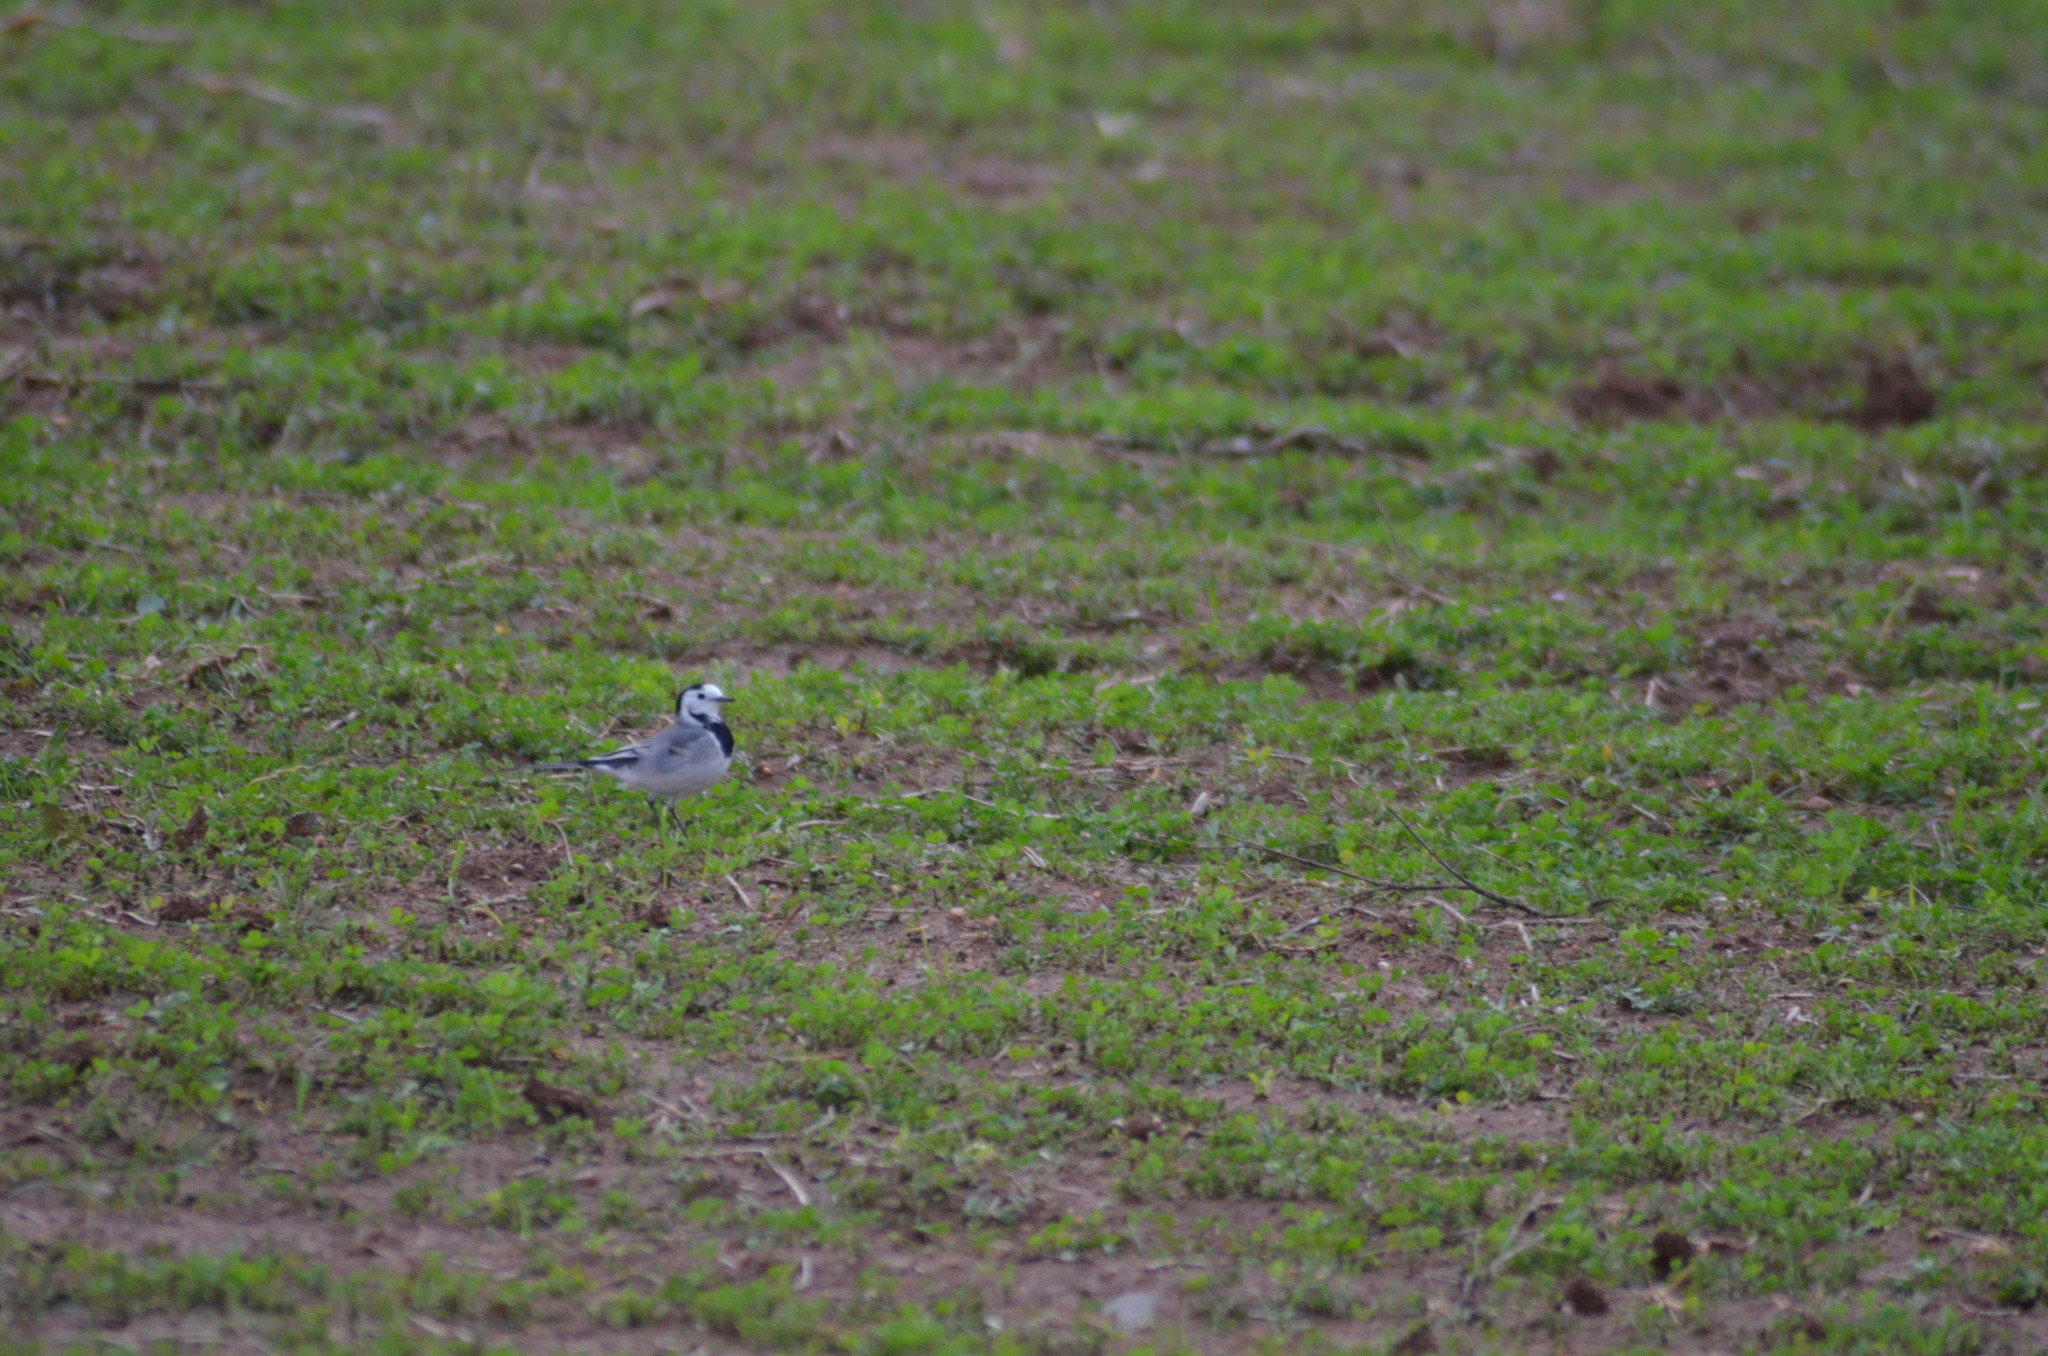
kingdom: Animalia
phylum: Chordata
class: Aves
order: Passeriformes
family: Motacillidae
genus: Motacilla
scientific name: Motacilla alba
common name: White wagtail
